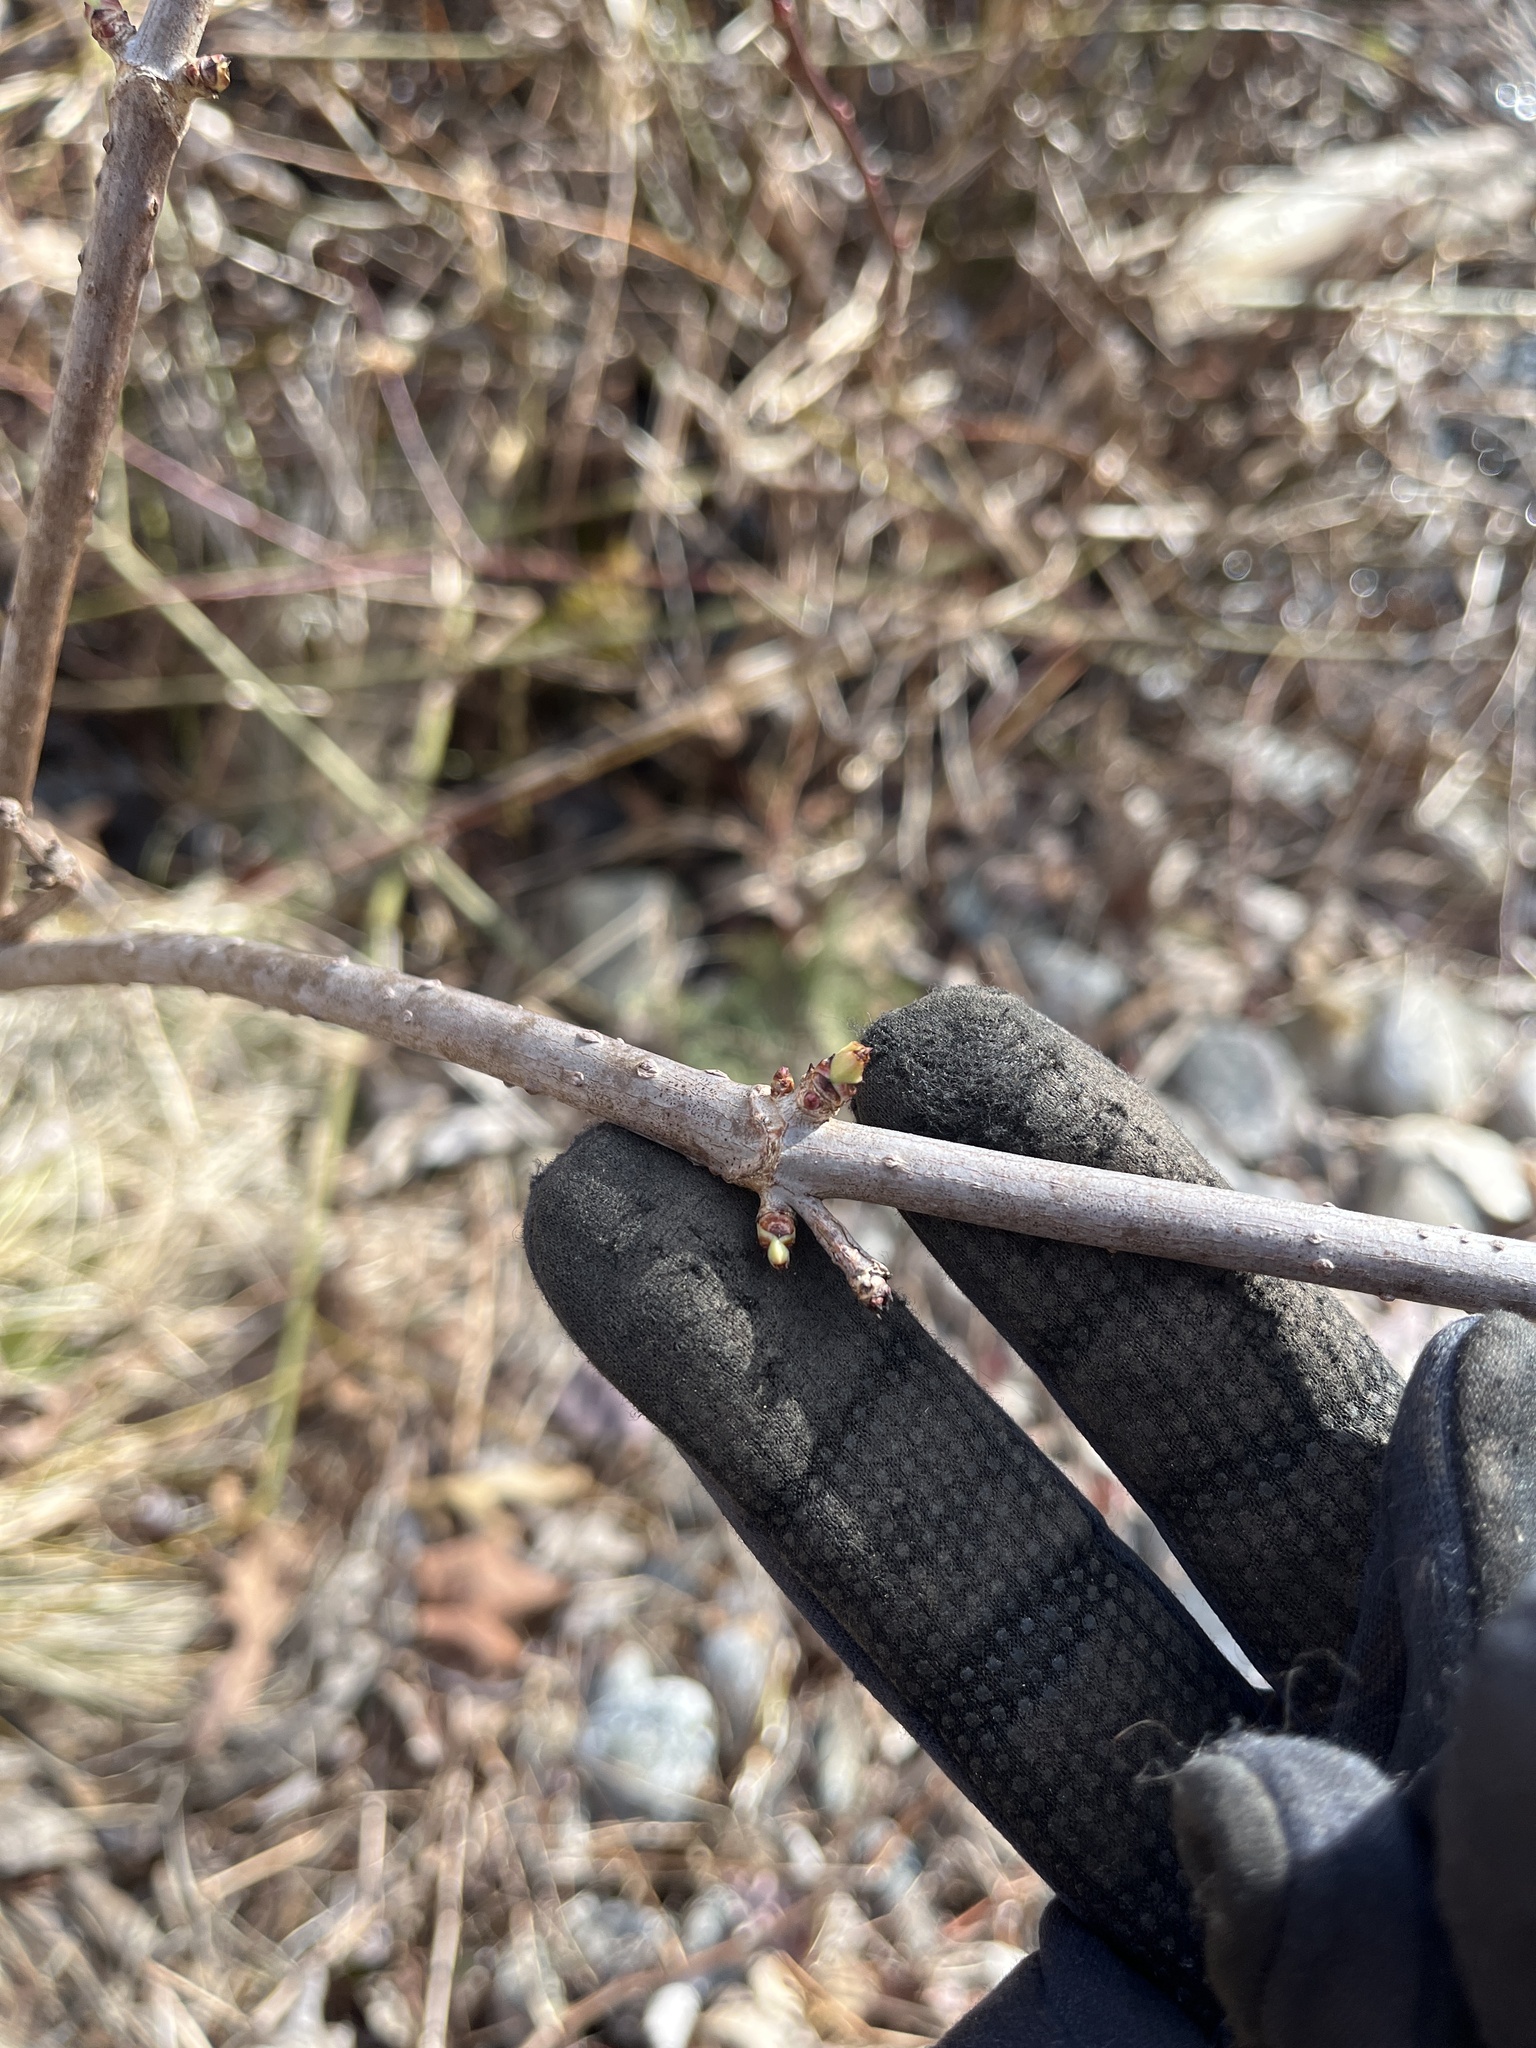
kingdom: Plantae
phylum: Tracheophyta
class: Magnoliopsida
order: Dipsacales
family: Viburnaceae
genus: Sambucus
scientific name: Sambucus canadensis
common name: American elder
